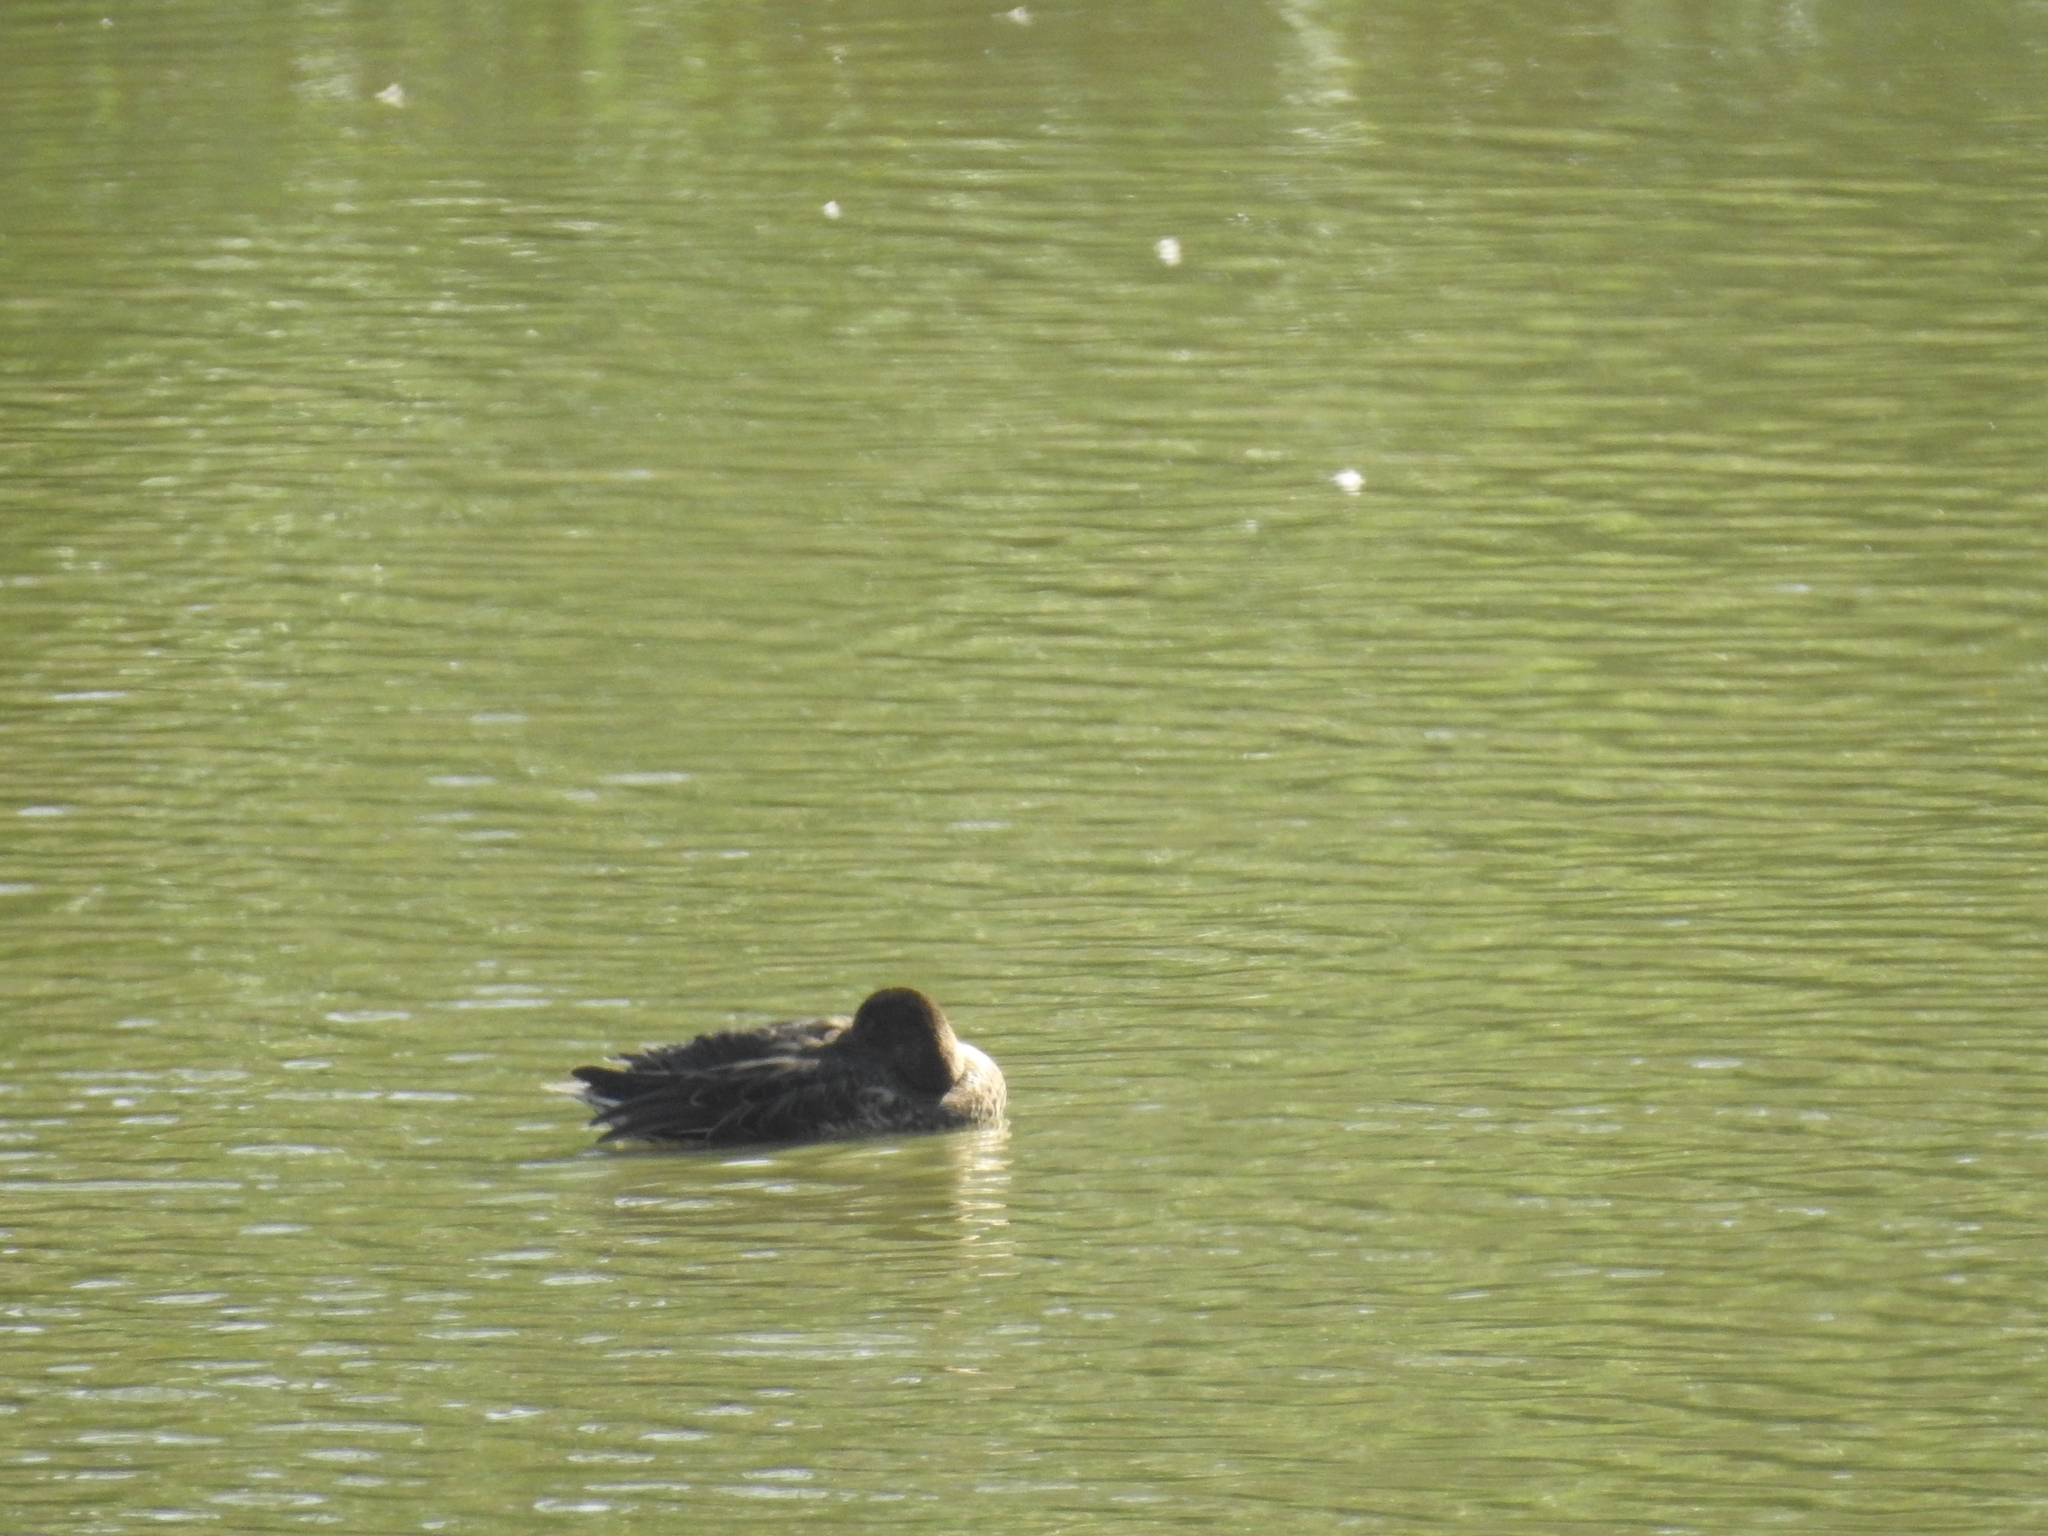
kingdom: Animalia
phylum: Chordata
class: Aves
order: Anseriformes
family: Anatidae
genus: Anas
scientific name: Anas acuta
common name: Northern pintail
